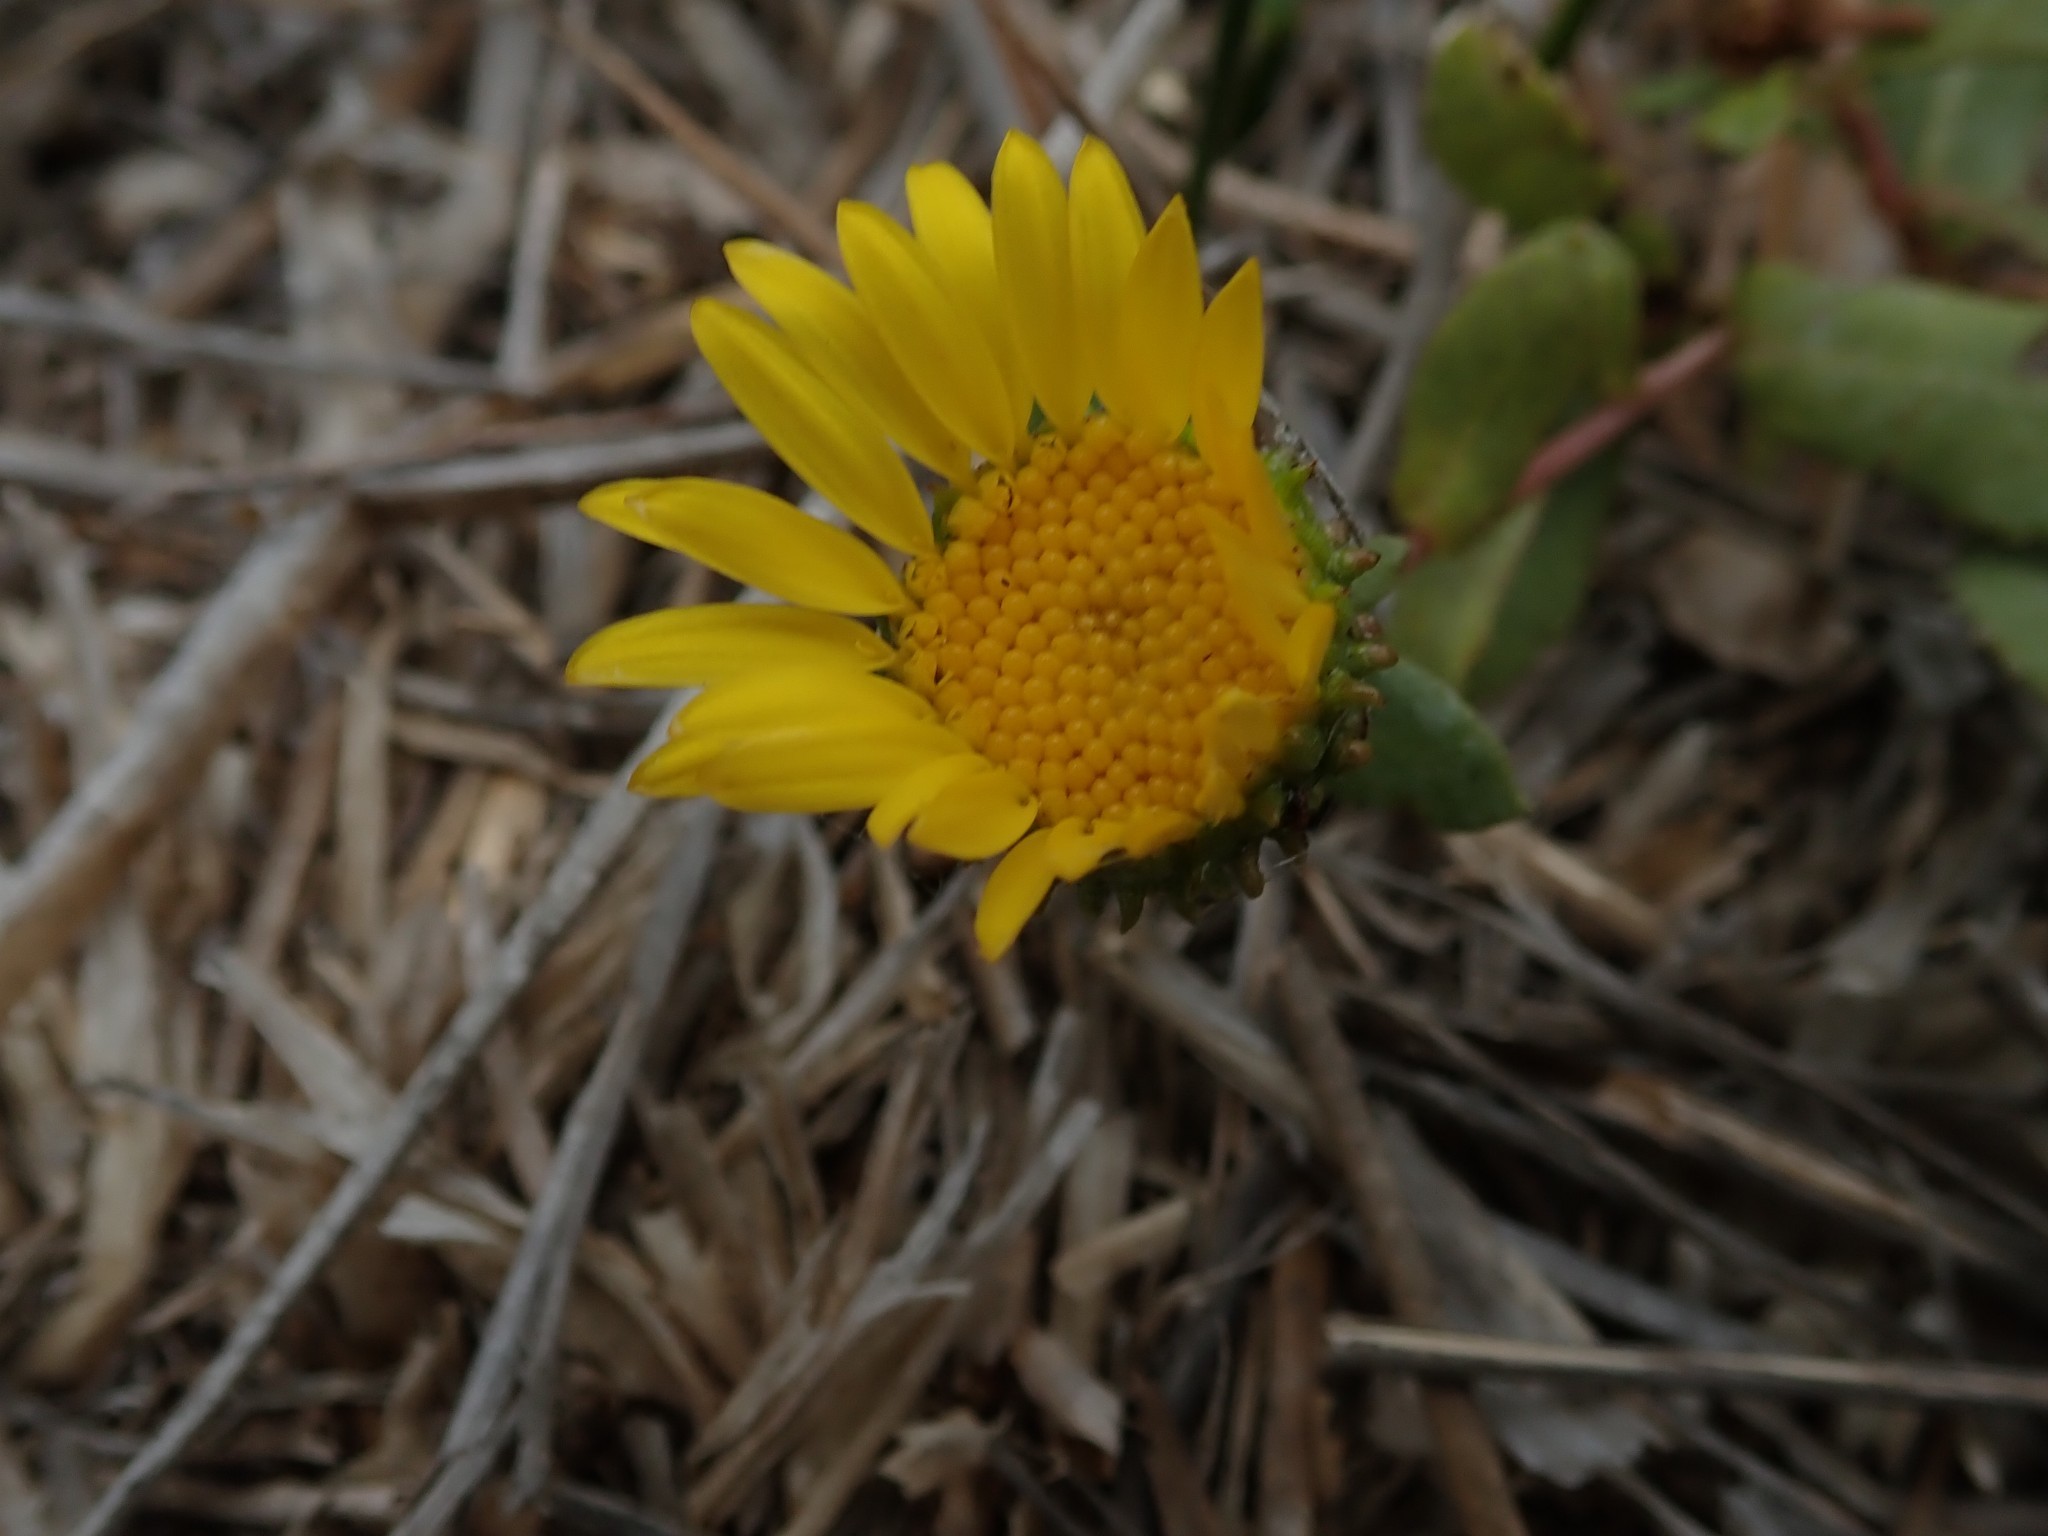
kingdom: Plantae
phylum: Tracheophyta
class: Magnoliopsida
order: Asterales
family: Asteraceae
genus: Grindelia
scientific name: Grindelia hirsutula
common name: Hairy gumweed
